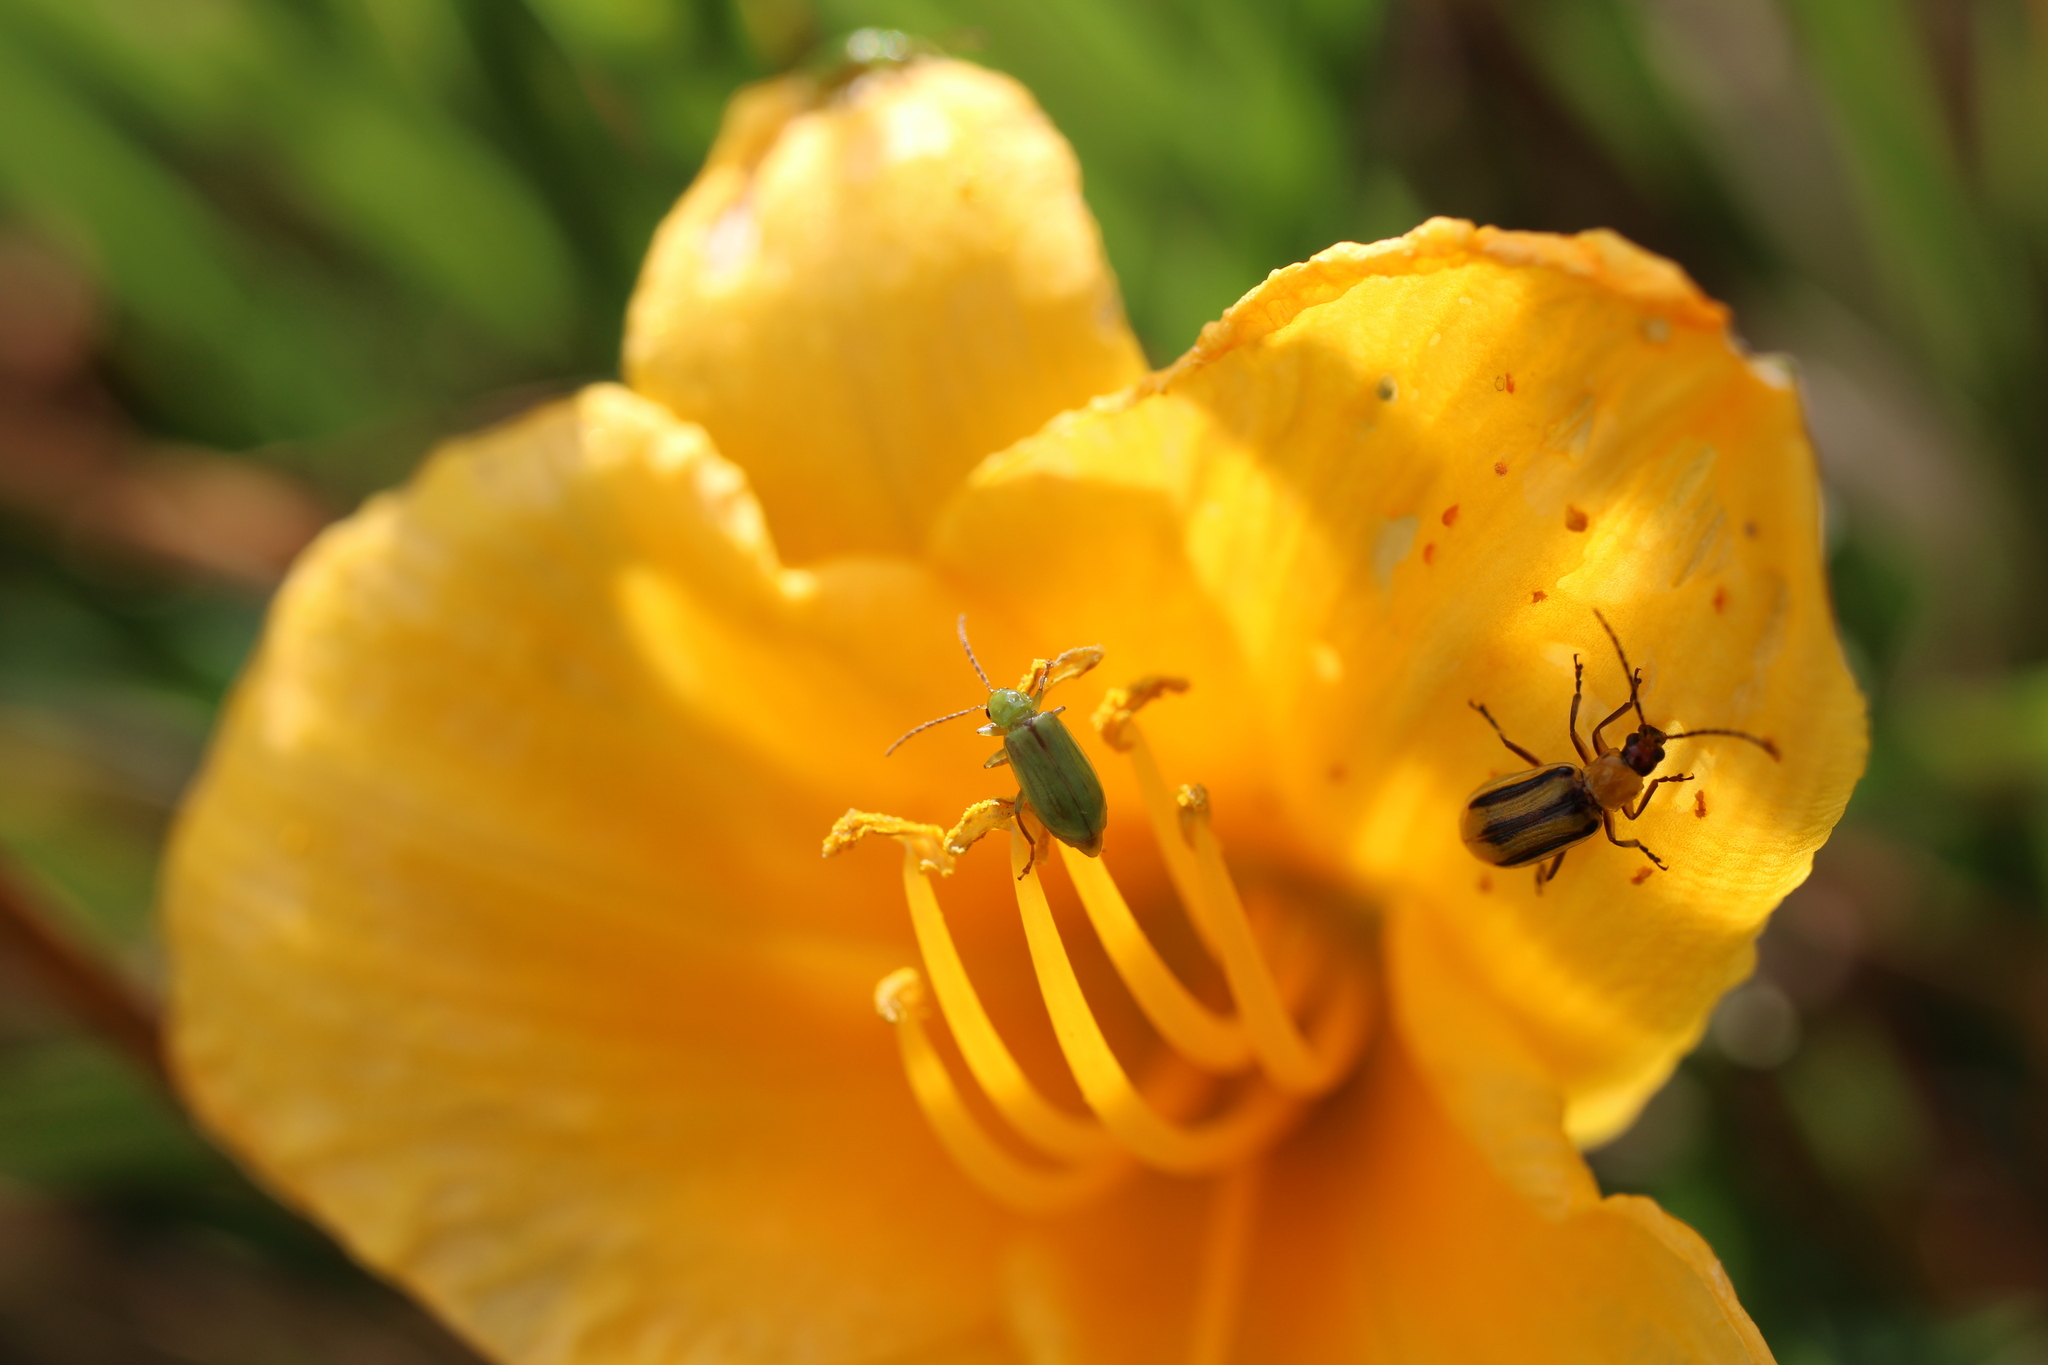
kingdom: Animalia
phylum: Arthropoda
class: Insecta
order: Coleoptera
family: Chrysomelidae
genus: Diabrotica
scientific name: Diabrotica barberi
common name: Northern corn rootworm
